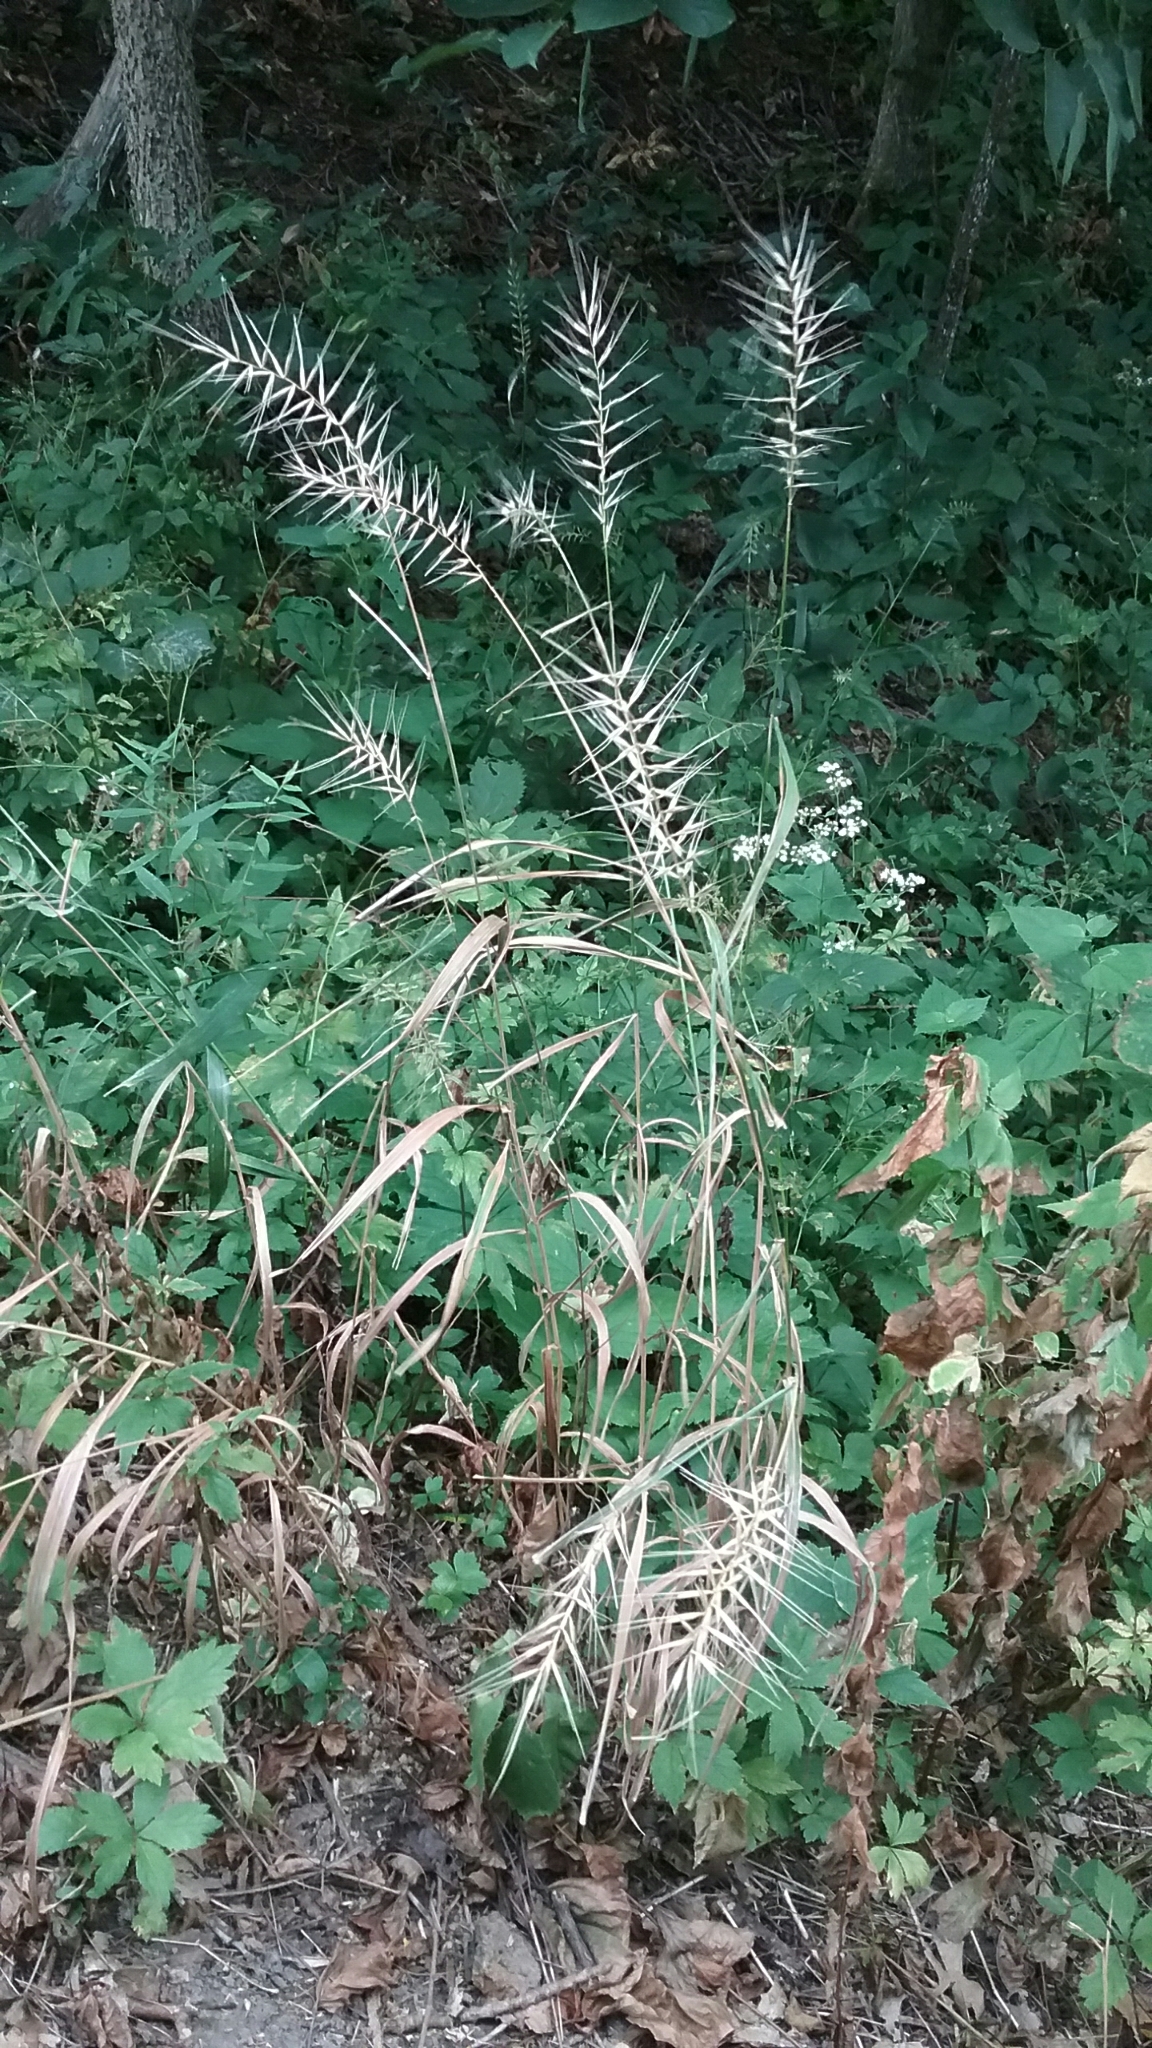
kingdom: Plantae
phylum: Tracheophyta
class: Liliopsida
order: Poales
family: Poaceae
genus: Elymus
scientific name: Elymus hystrix
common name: Bottlebrush grass
